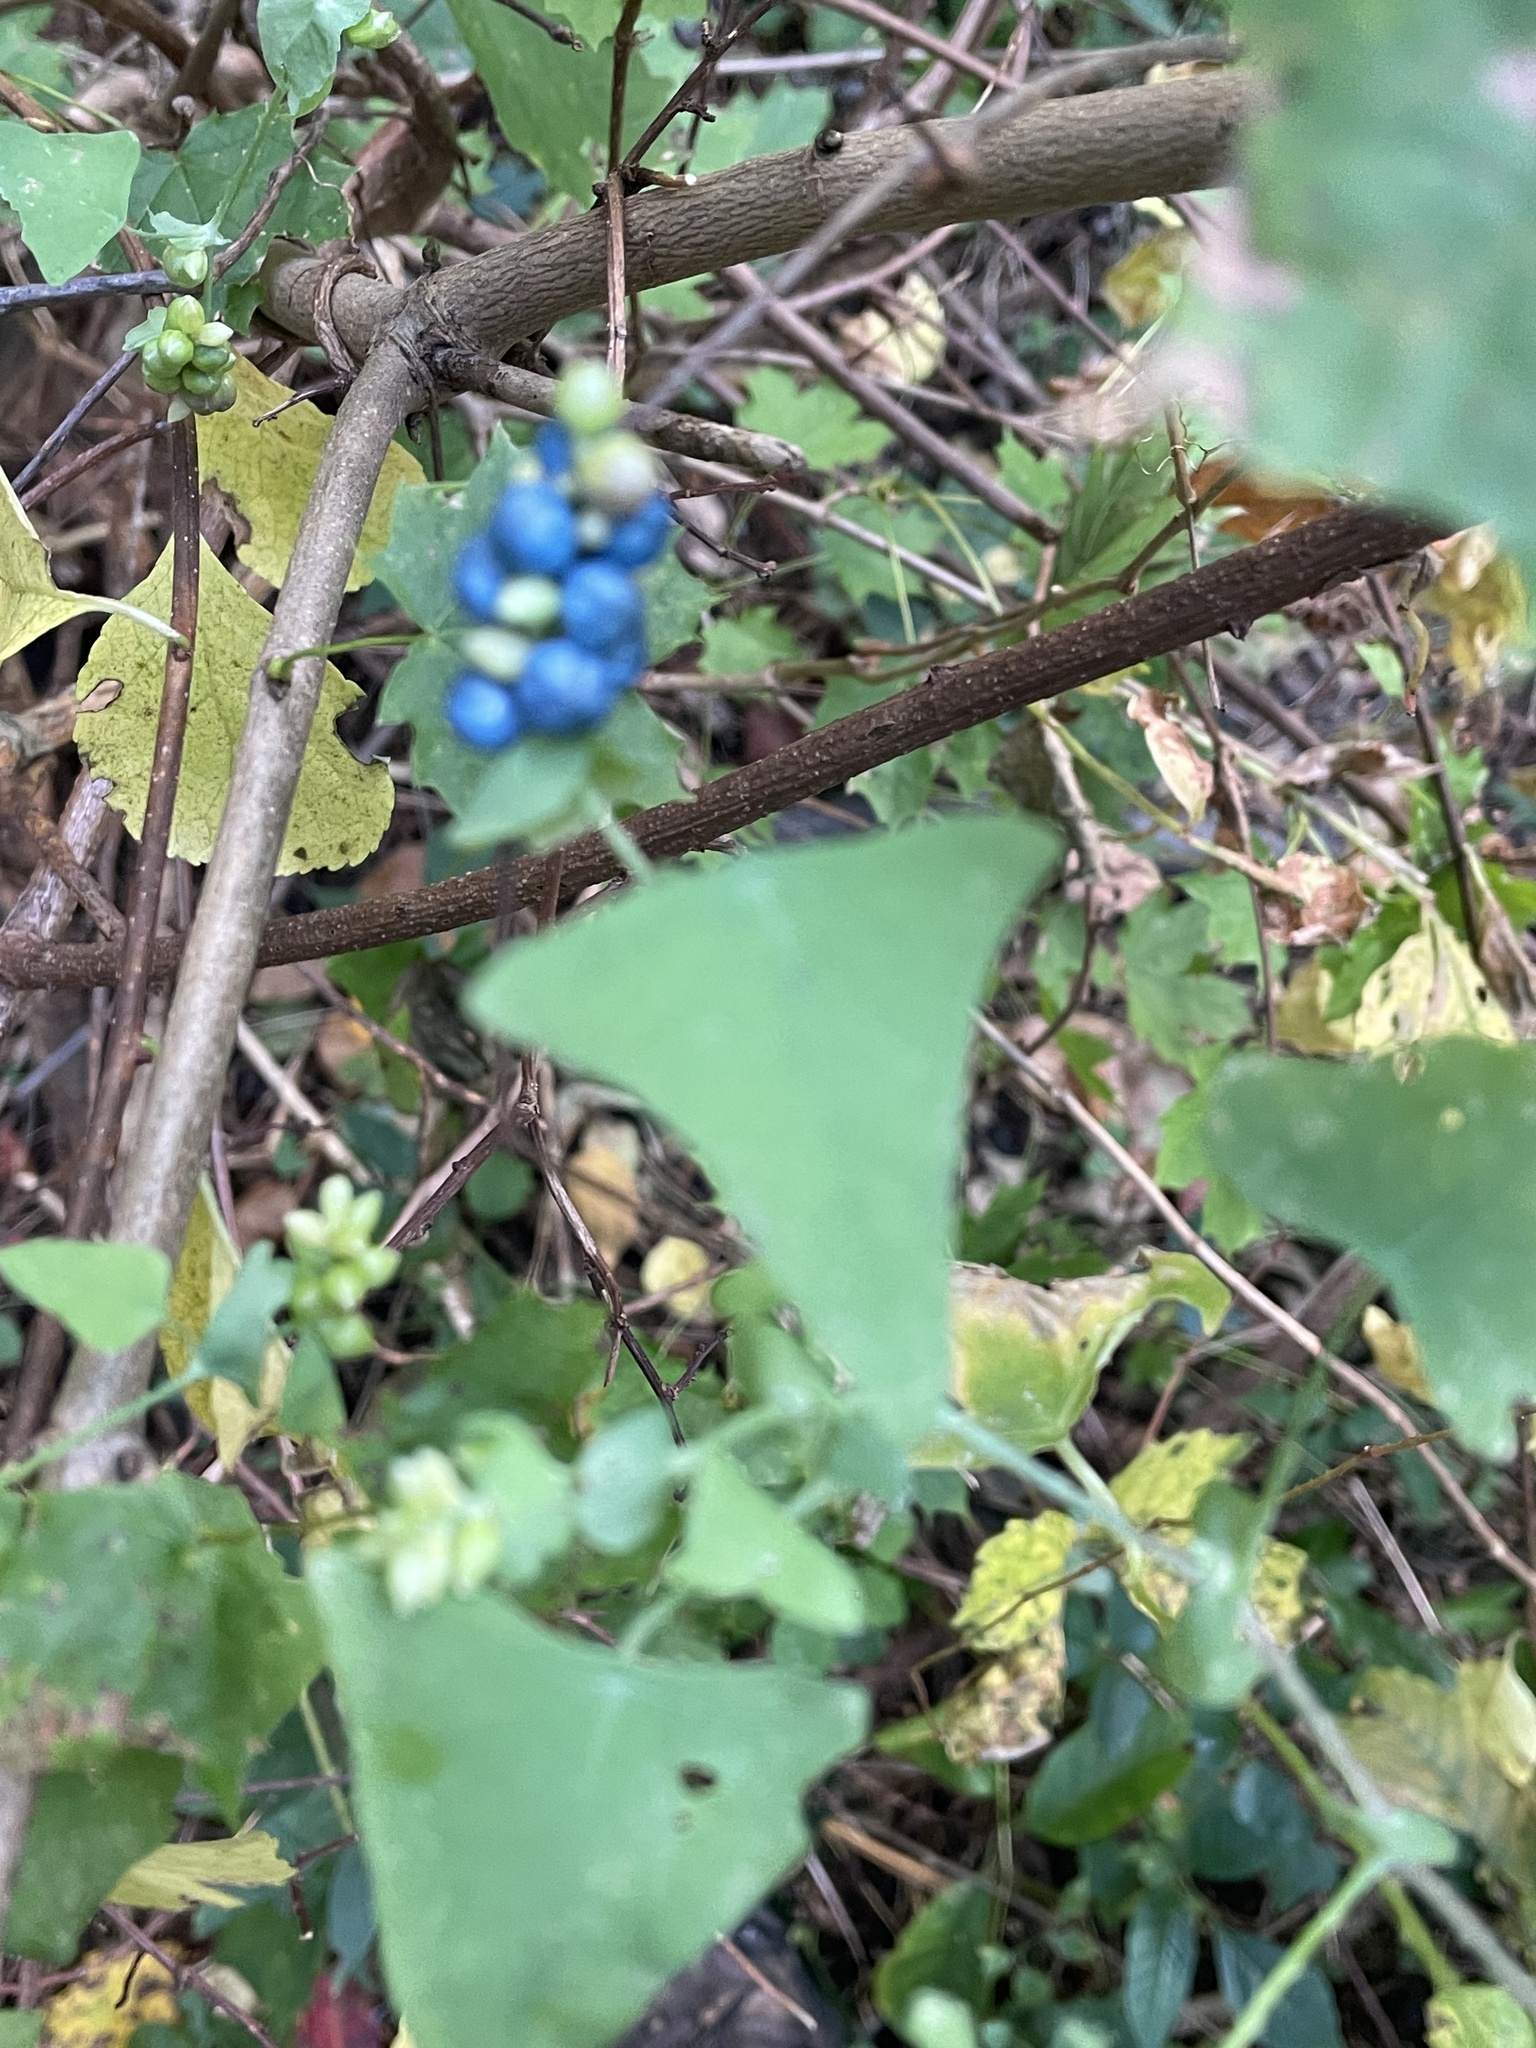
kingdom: Plantae
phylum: Tracheophyta
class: Magnoliopsida
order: Caryophyllales
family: Polygonaceae
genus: Persicaria
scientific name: Persicaria perfoliata
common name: Asiatic tearthumb
